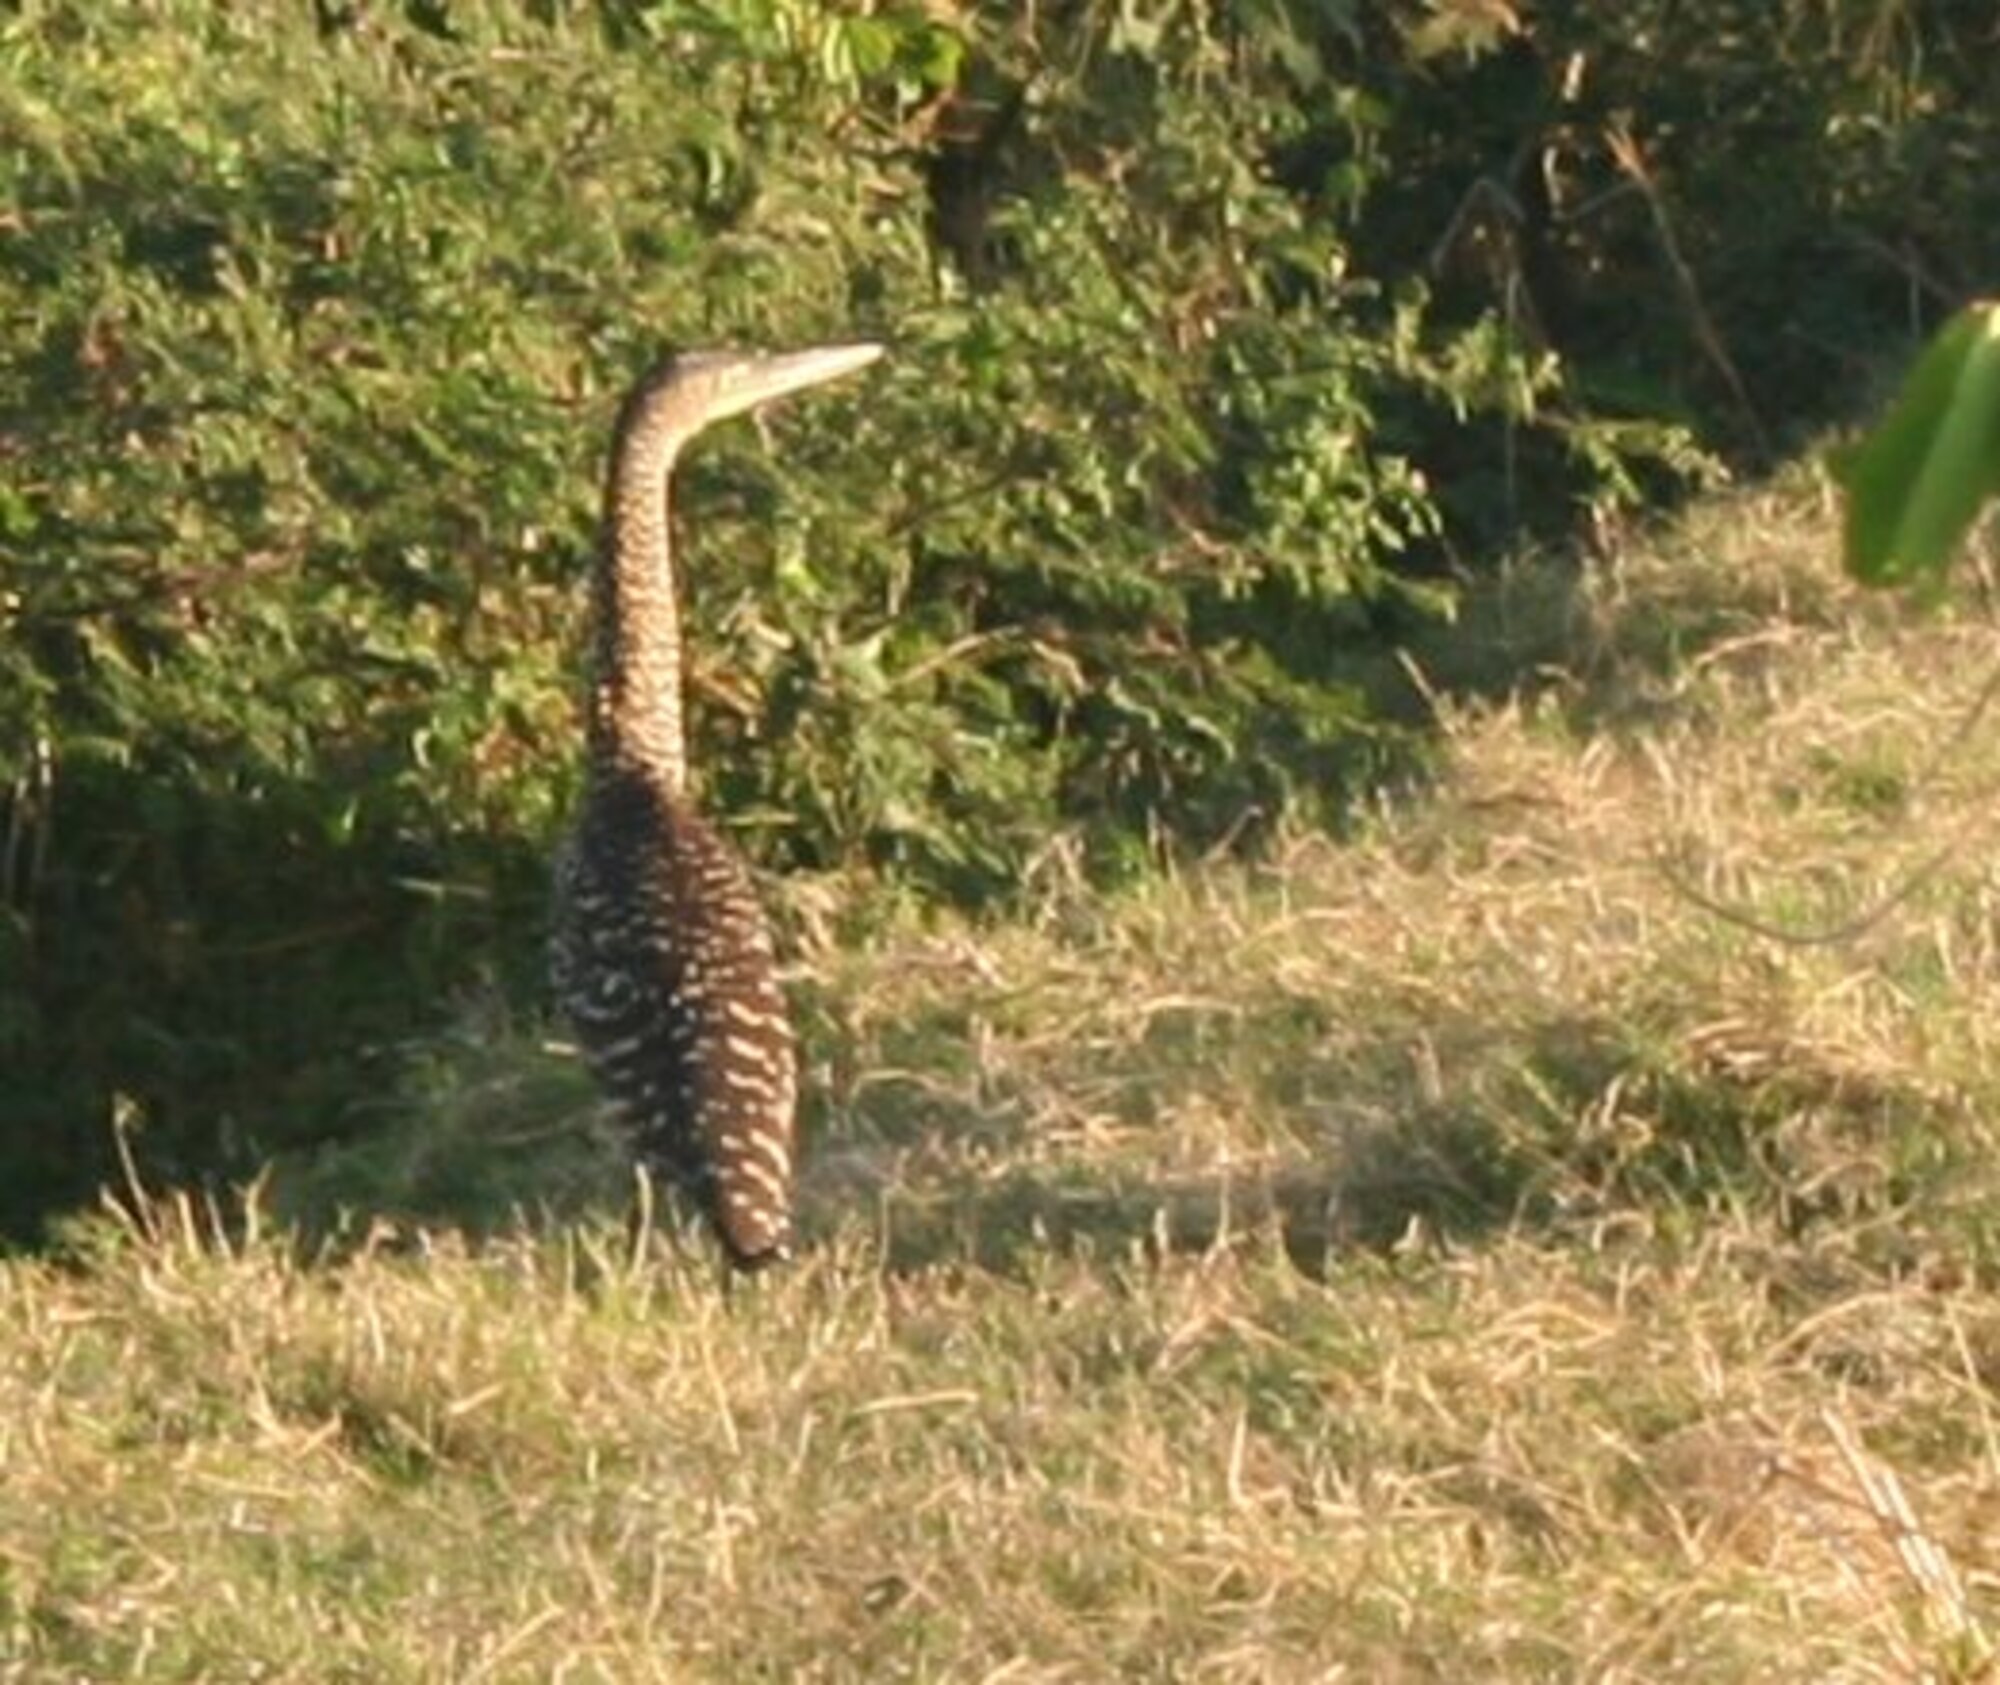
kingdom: Animalia
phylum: Chordata
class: Aves
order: Pelecaniformes
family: Ardeidae
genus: Tigrisoma
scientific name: Tigrisoma mexicanum
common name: Bare-throated tiger-heron
